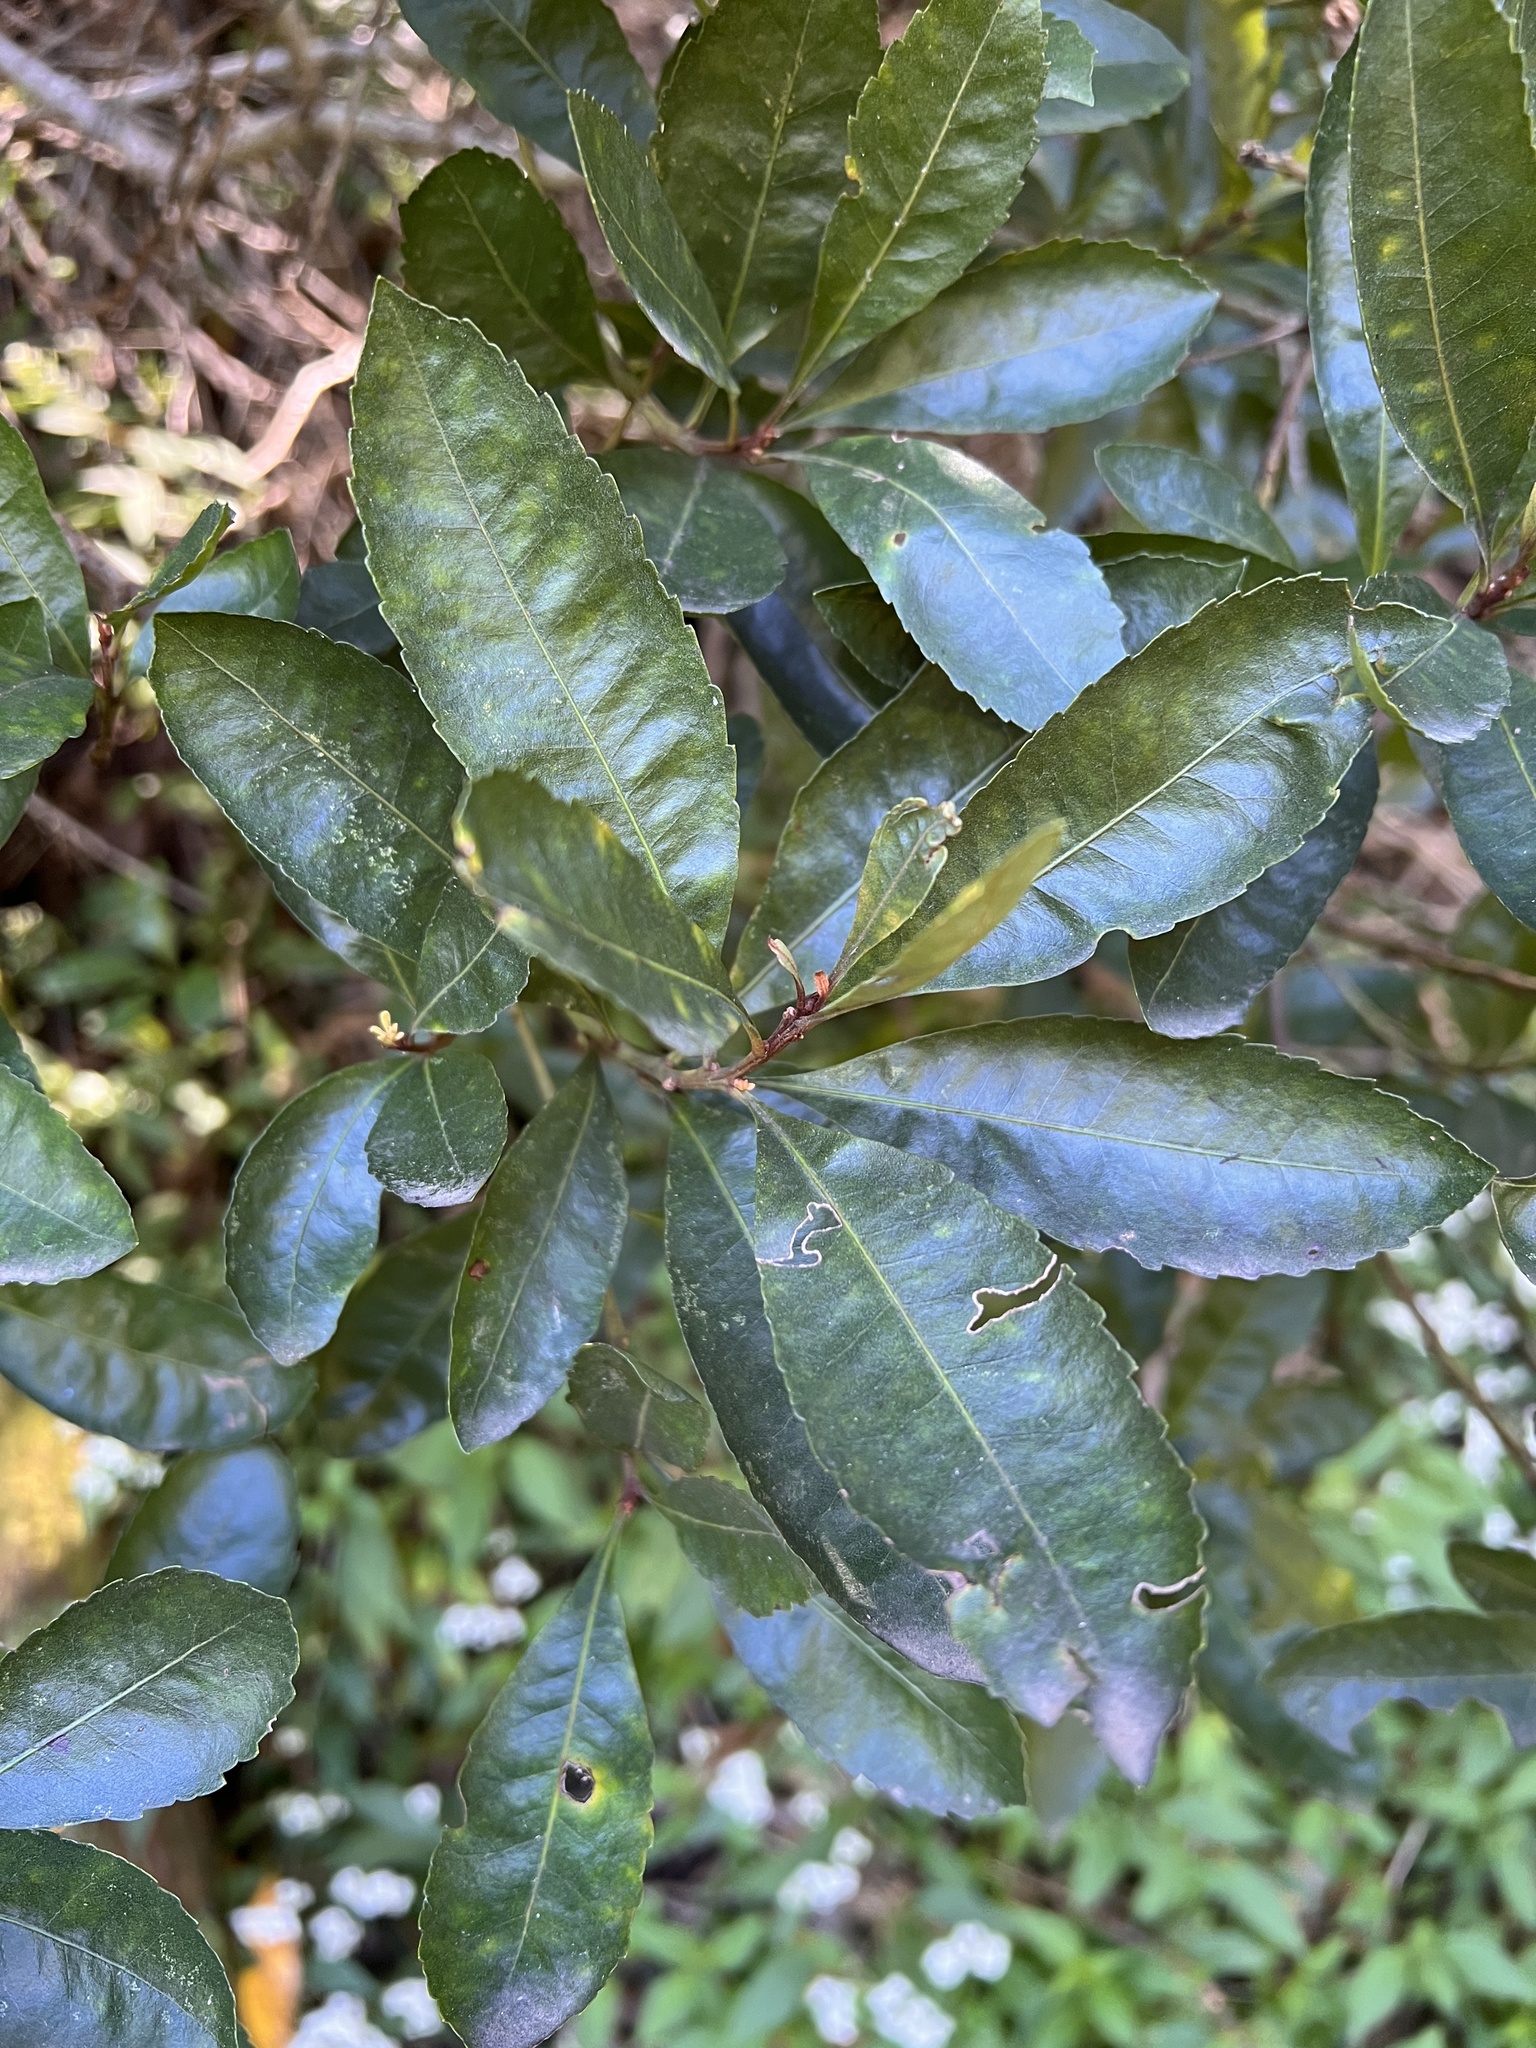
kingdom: Plantae
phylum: Tracheophyta
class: Magnoliopsida
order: Fagales
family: Myricaceae
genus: Morella
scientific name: Morella faya
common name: Firetree
